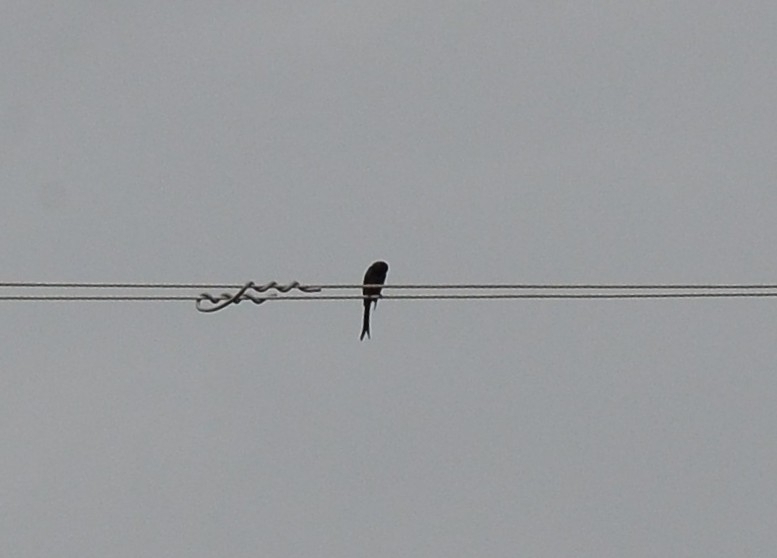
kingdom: Animalia
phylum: Chordata
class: Aves
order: Passeriformes
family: Dicruridae
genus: Dicrurus
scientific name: Dicrurus macrocercus
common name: Black drongo
